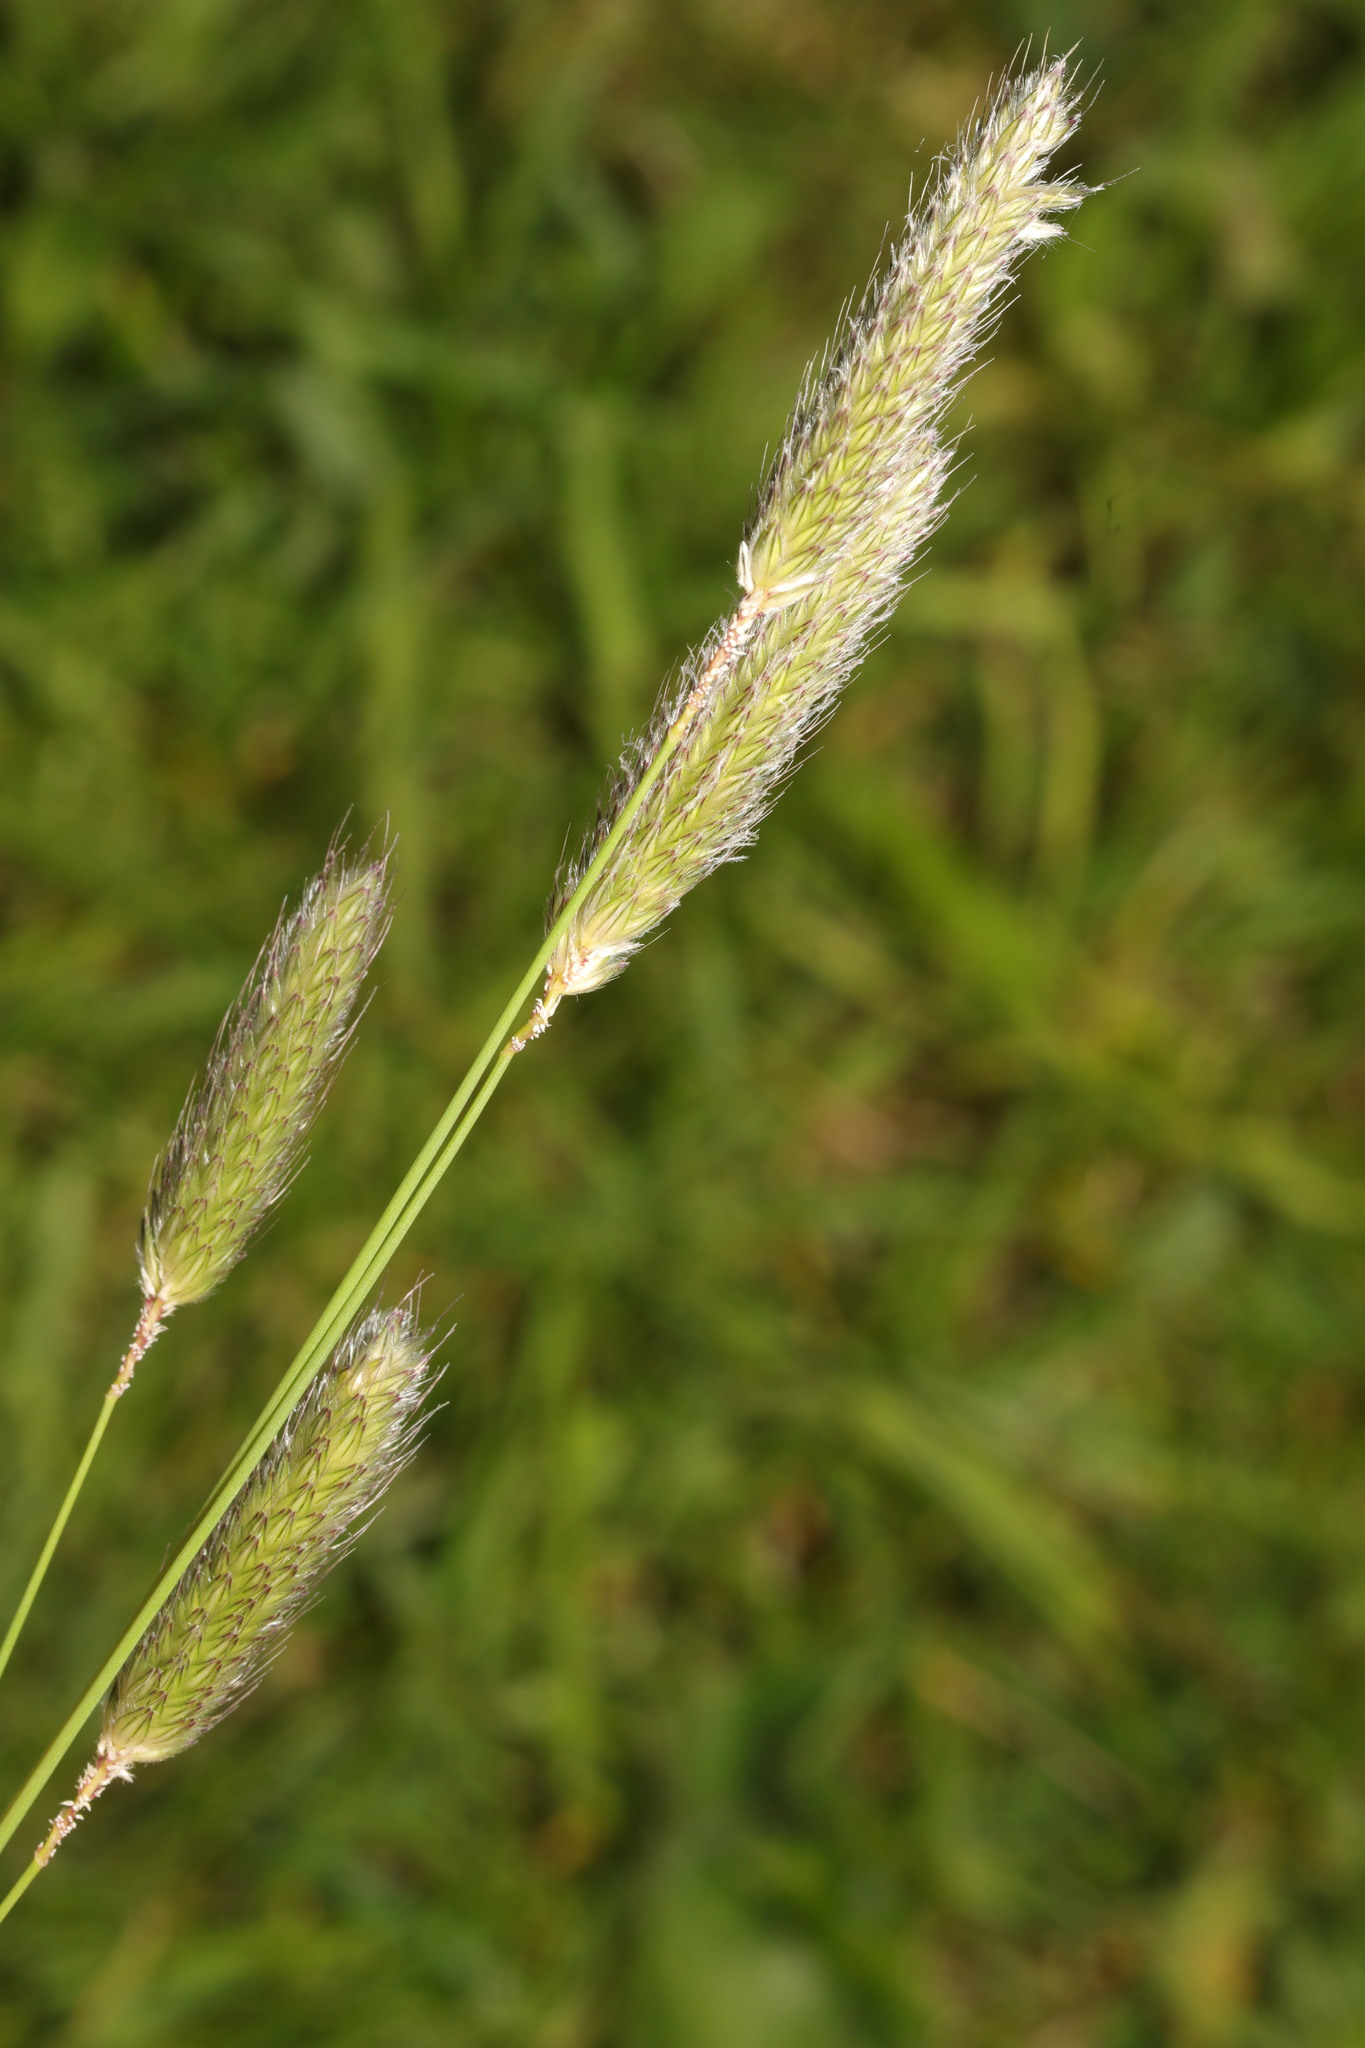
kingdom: Plantae
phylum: Tracheophyta
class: Liliopsida
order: Poales
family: Poaceae
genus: Alopecurus
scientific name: Alopecurus pratensis
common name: Meadow foxtail
